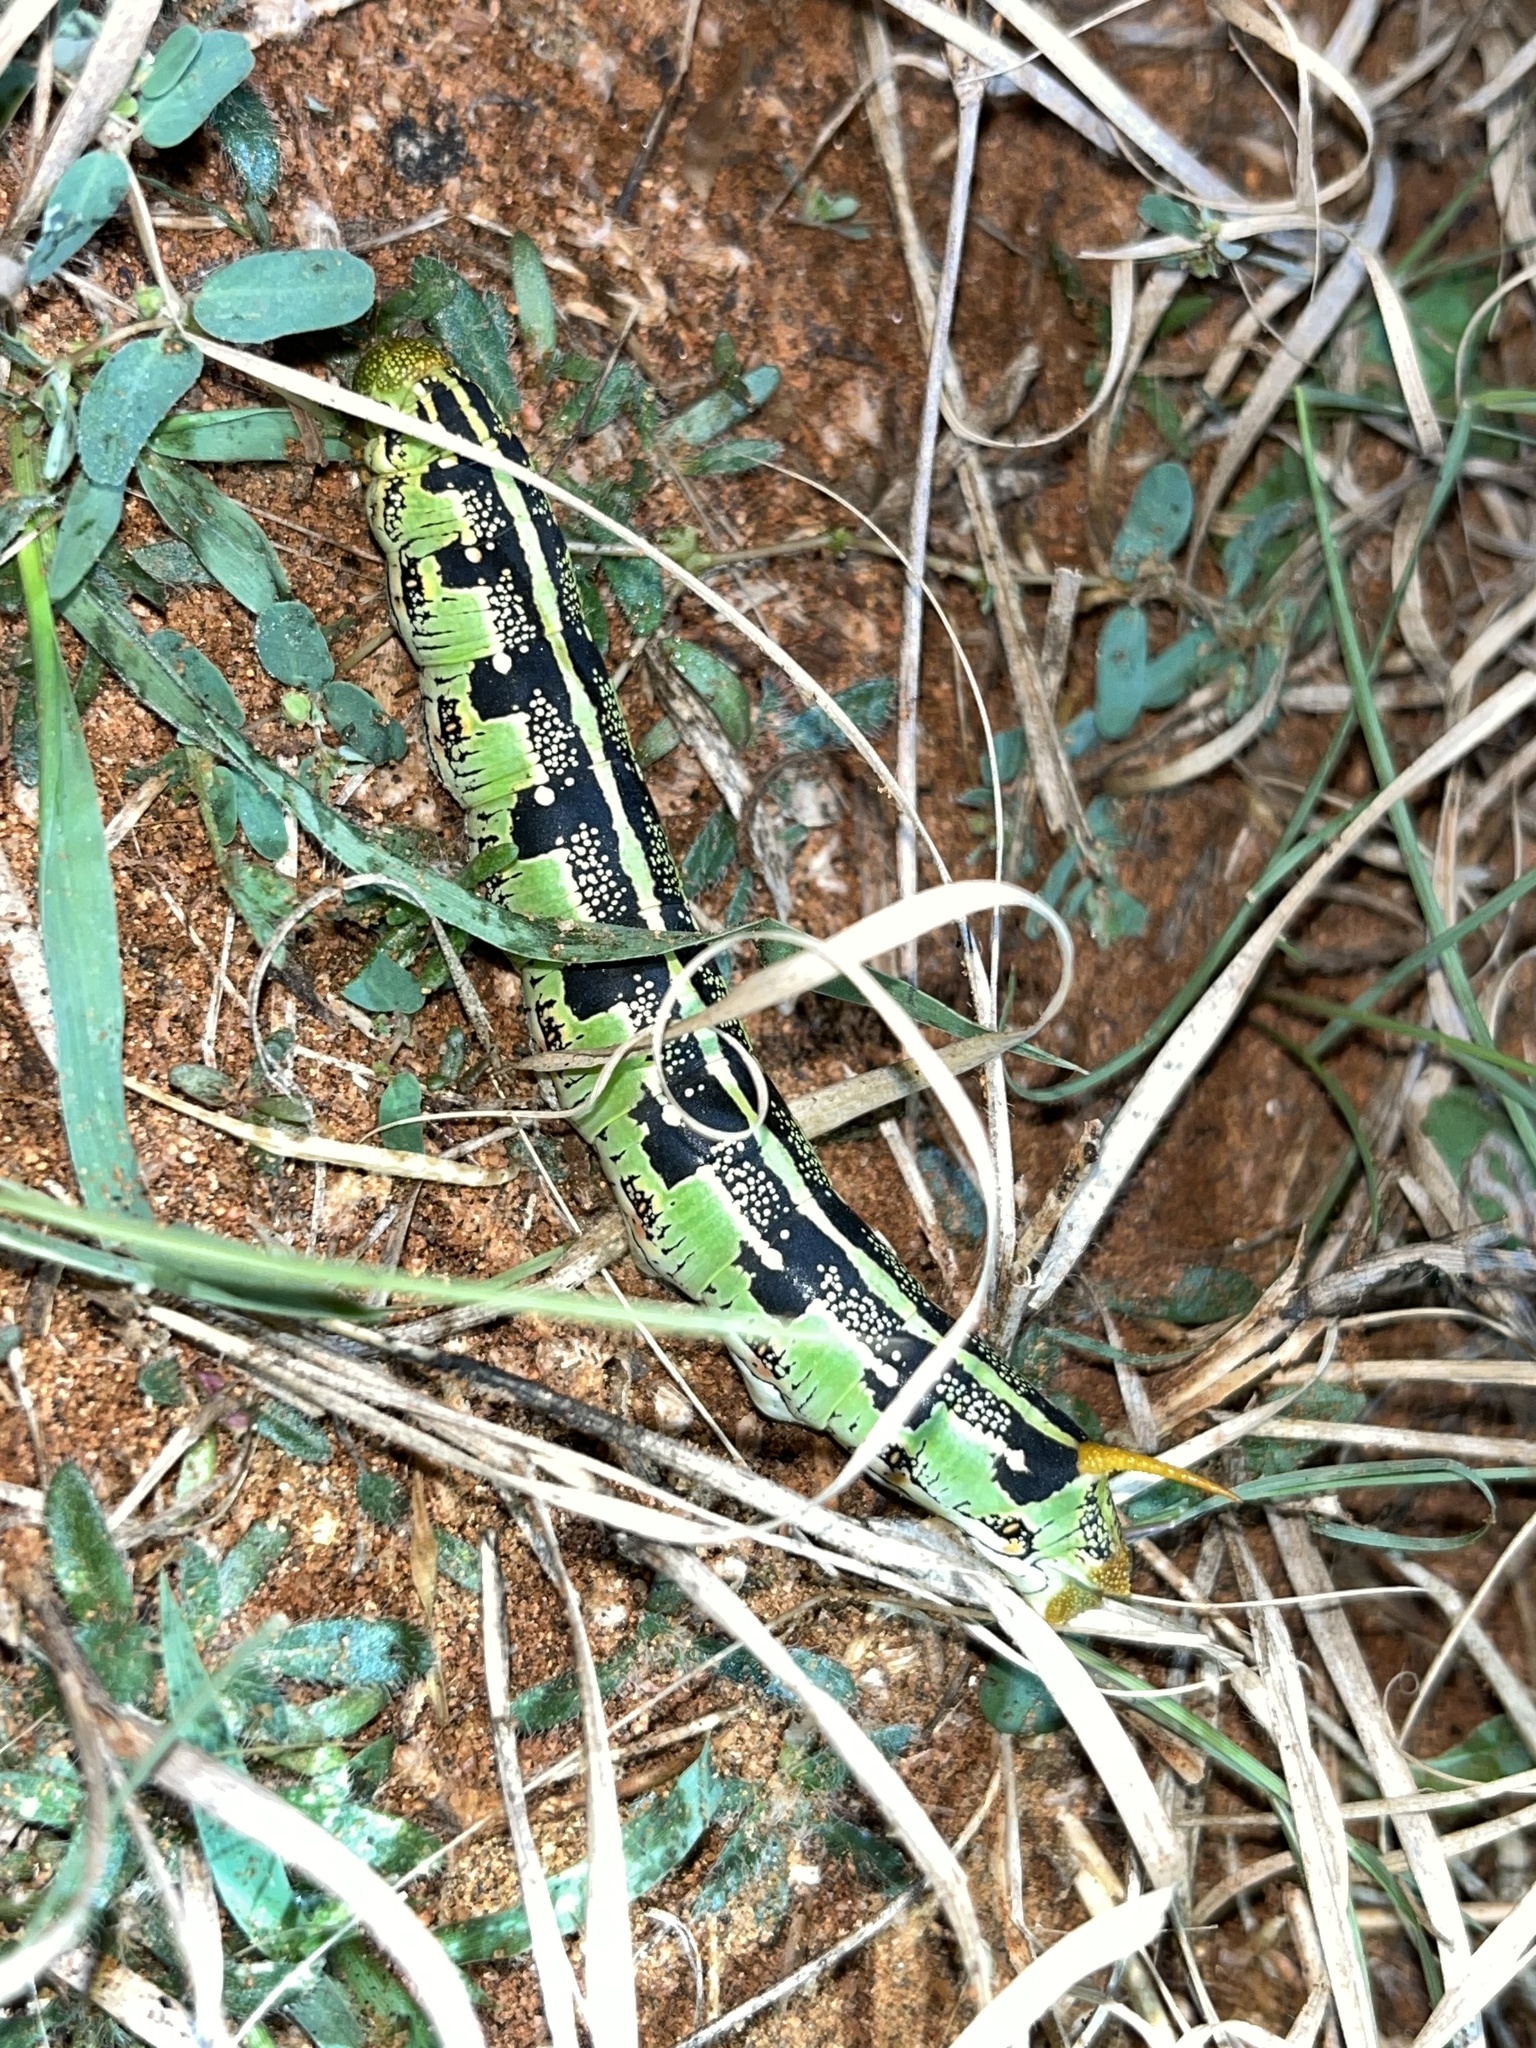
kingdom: Animalia
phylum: Arthropoda
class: Insecta
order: Lepidoptera
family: Sphingidae
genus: Hyles
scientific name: Hyles lineata
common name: White-lined sphinx
